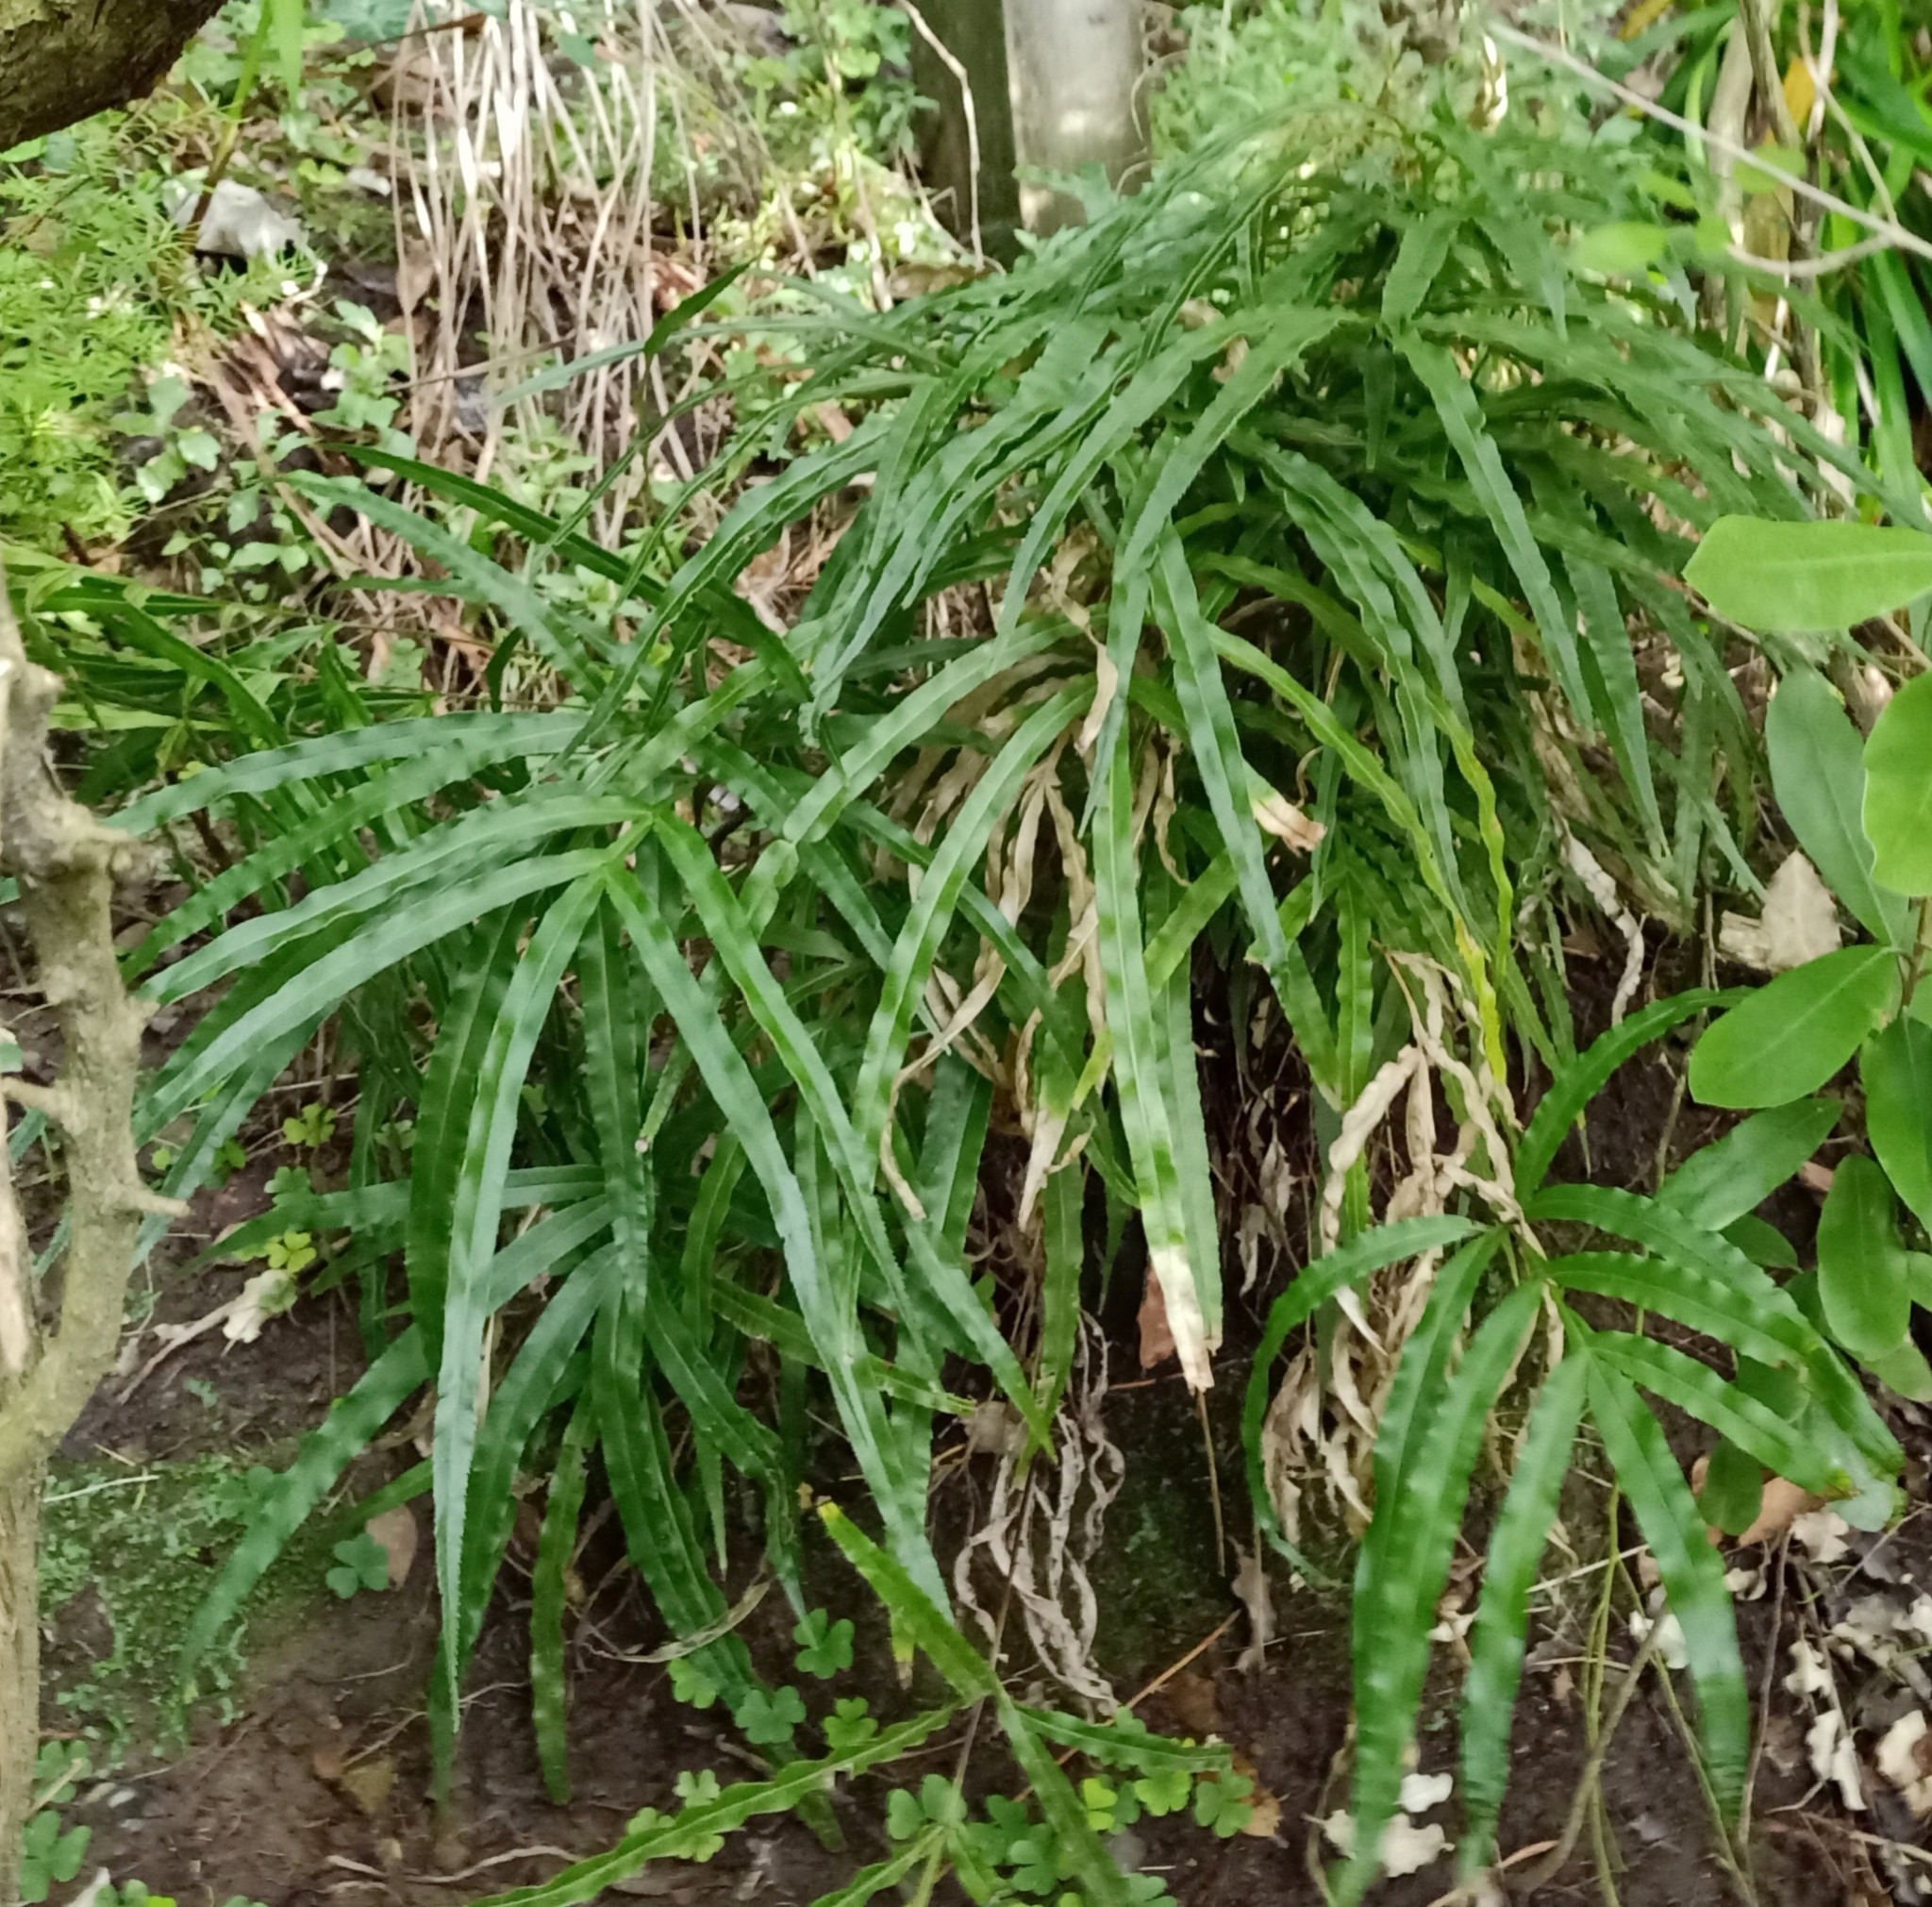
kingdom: Plantae
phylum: Tracheophyta
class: Polypodiopsida
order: Polypodiales
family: Pteridaceae
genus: Pteris
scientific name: Pteris cretica
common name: Ribbon fern
